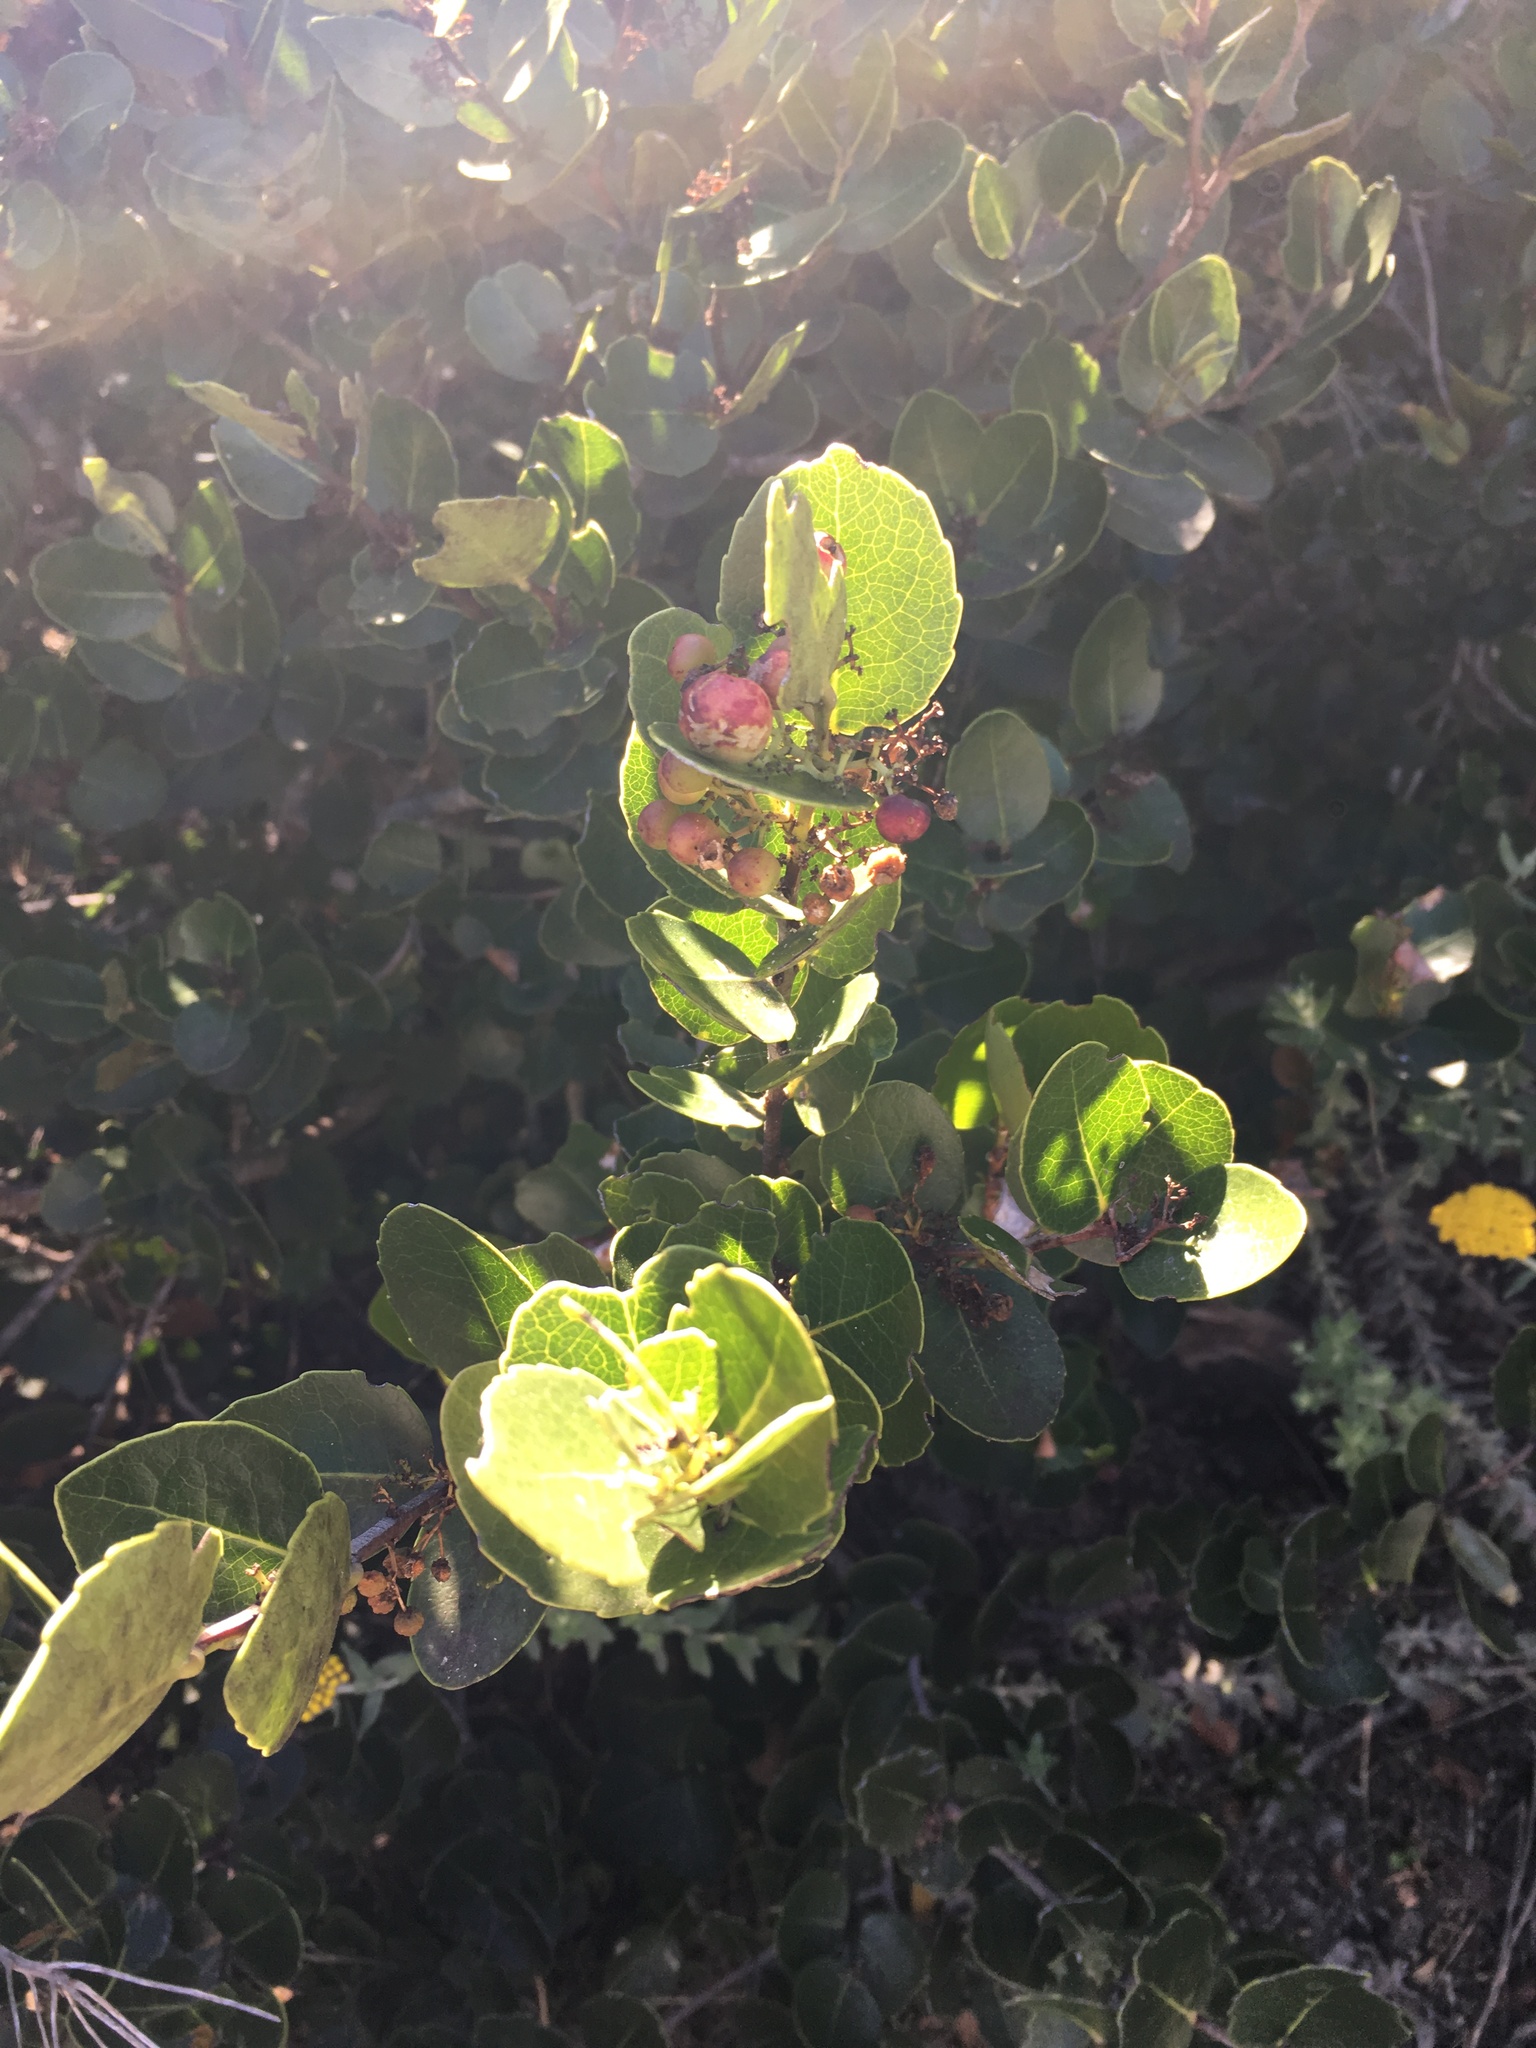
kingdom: Plantae
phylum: Tracheophyta
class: Magnoliopsida
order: Celastrales
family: Celastraceae
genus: Cassine
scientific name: Cassine peragua
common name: Cape saffron
